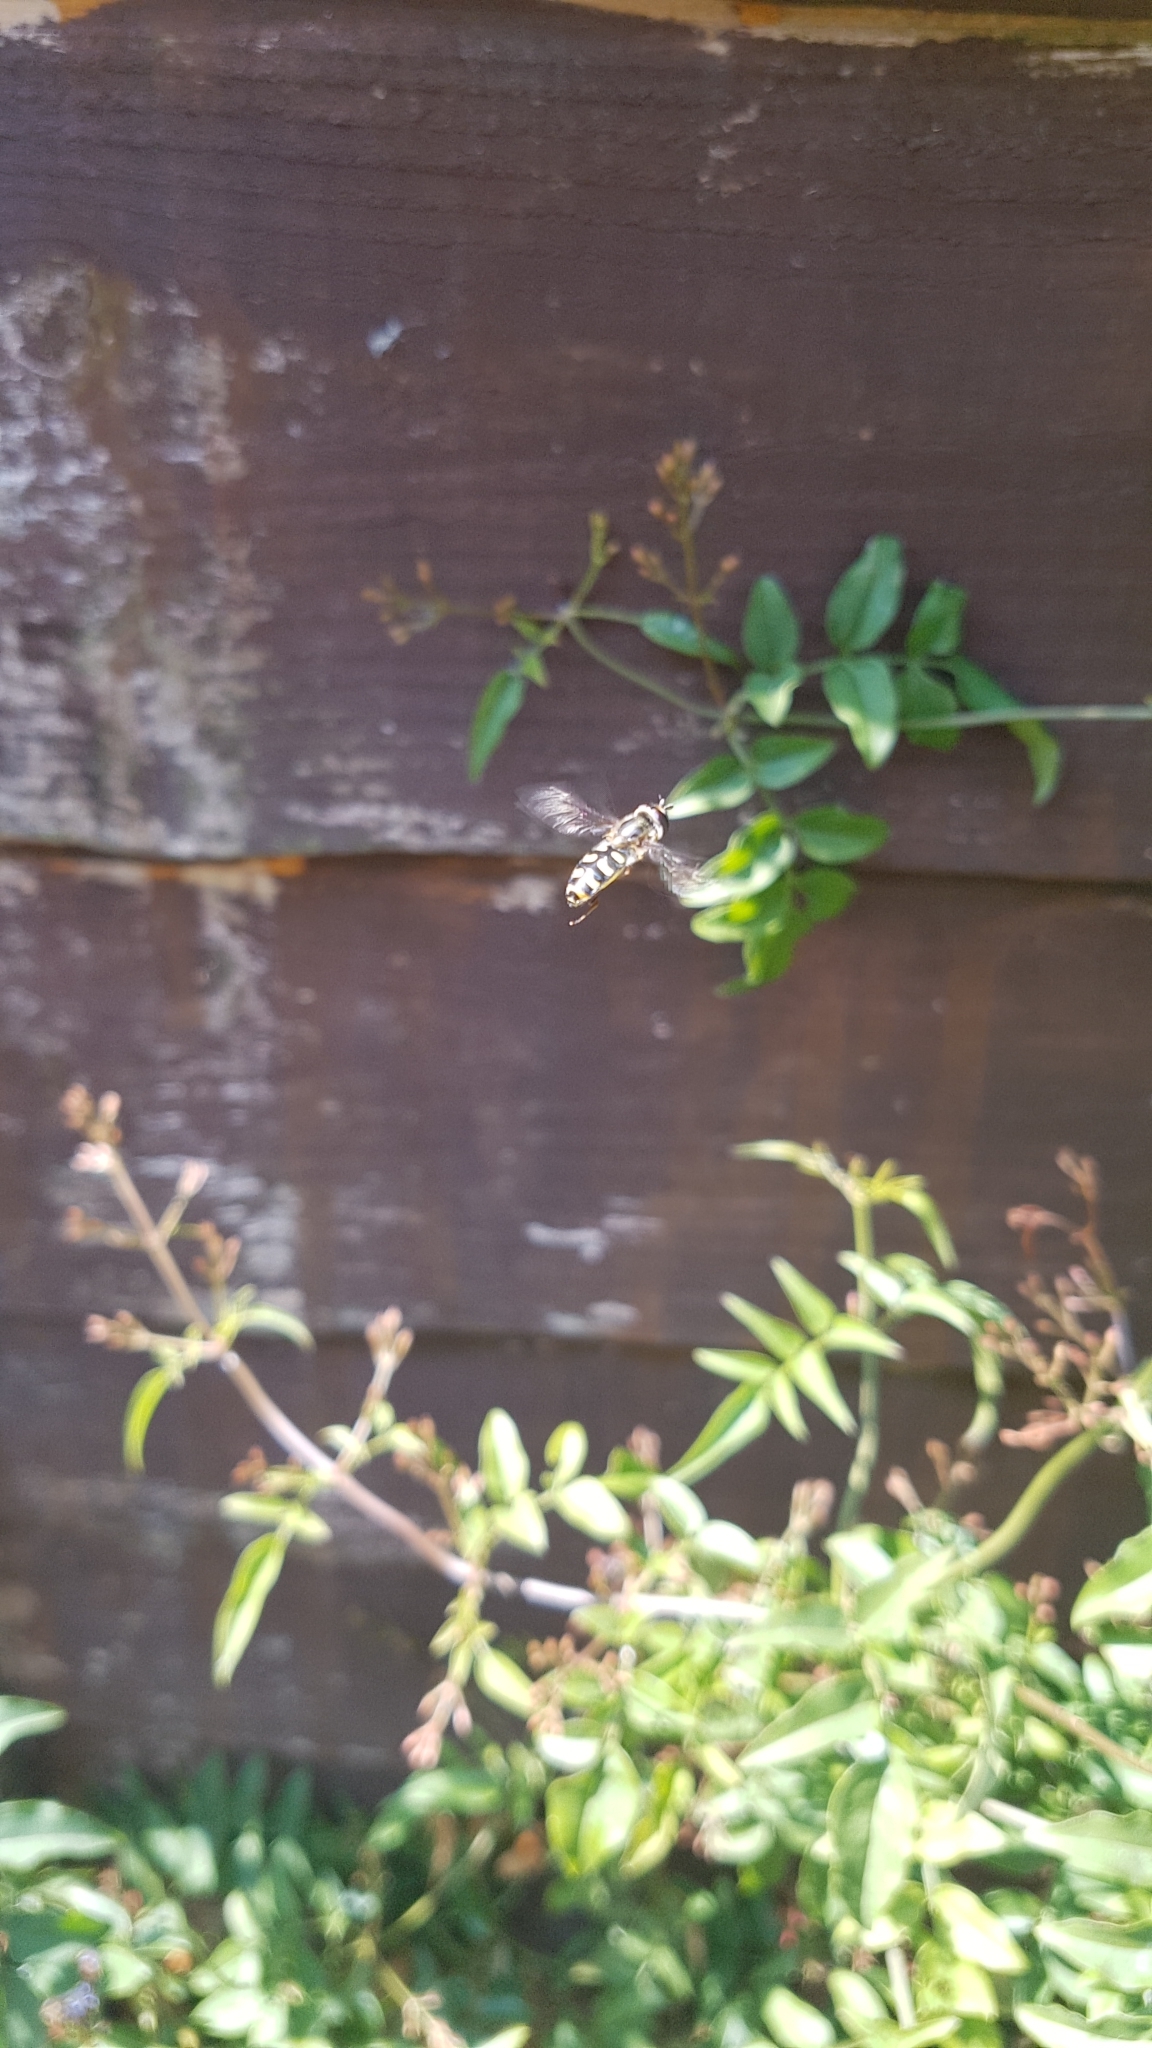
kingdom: Animalia
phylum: Arthropoda
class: Insecta
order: Diptera
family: Syrphidae
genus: Eupeodes
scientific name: Eupeodes
